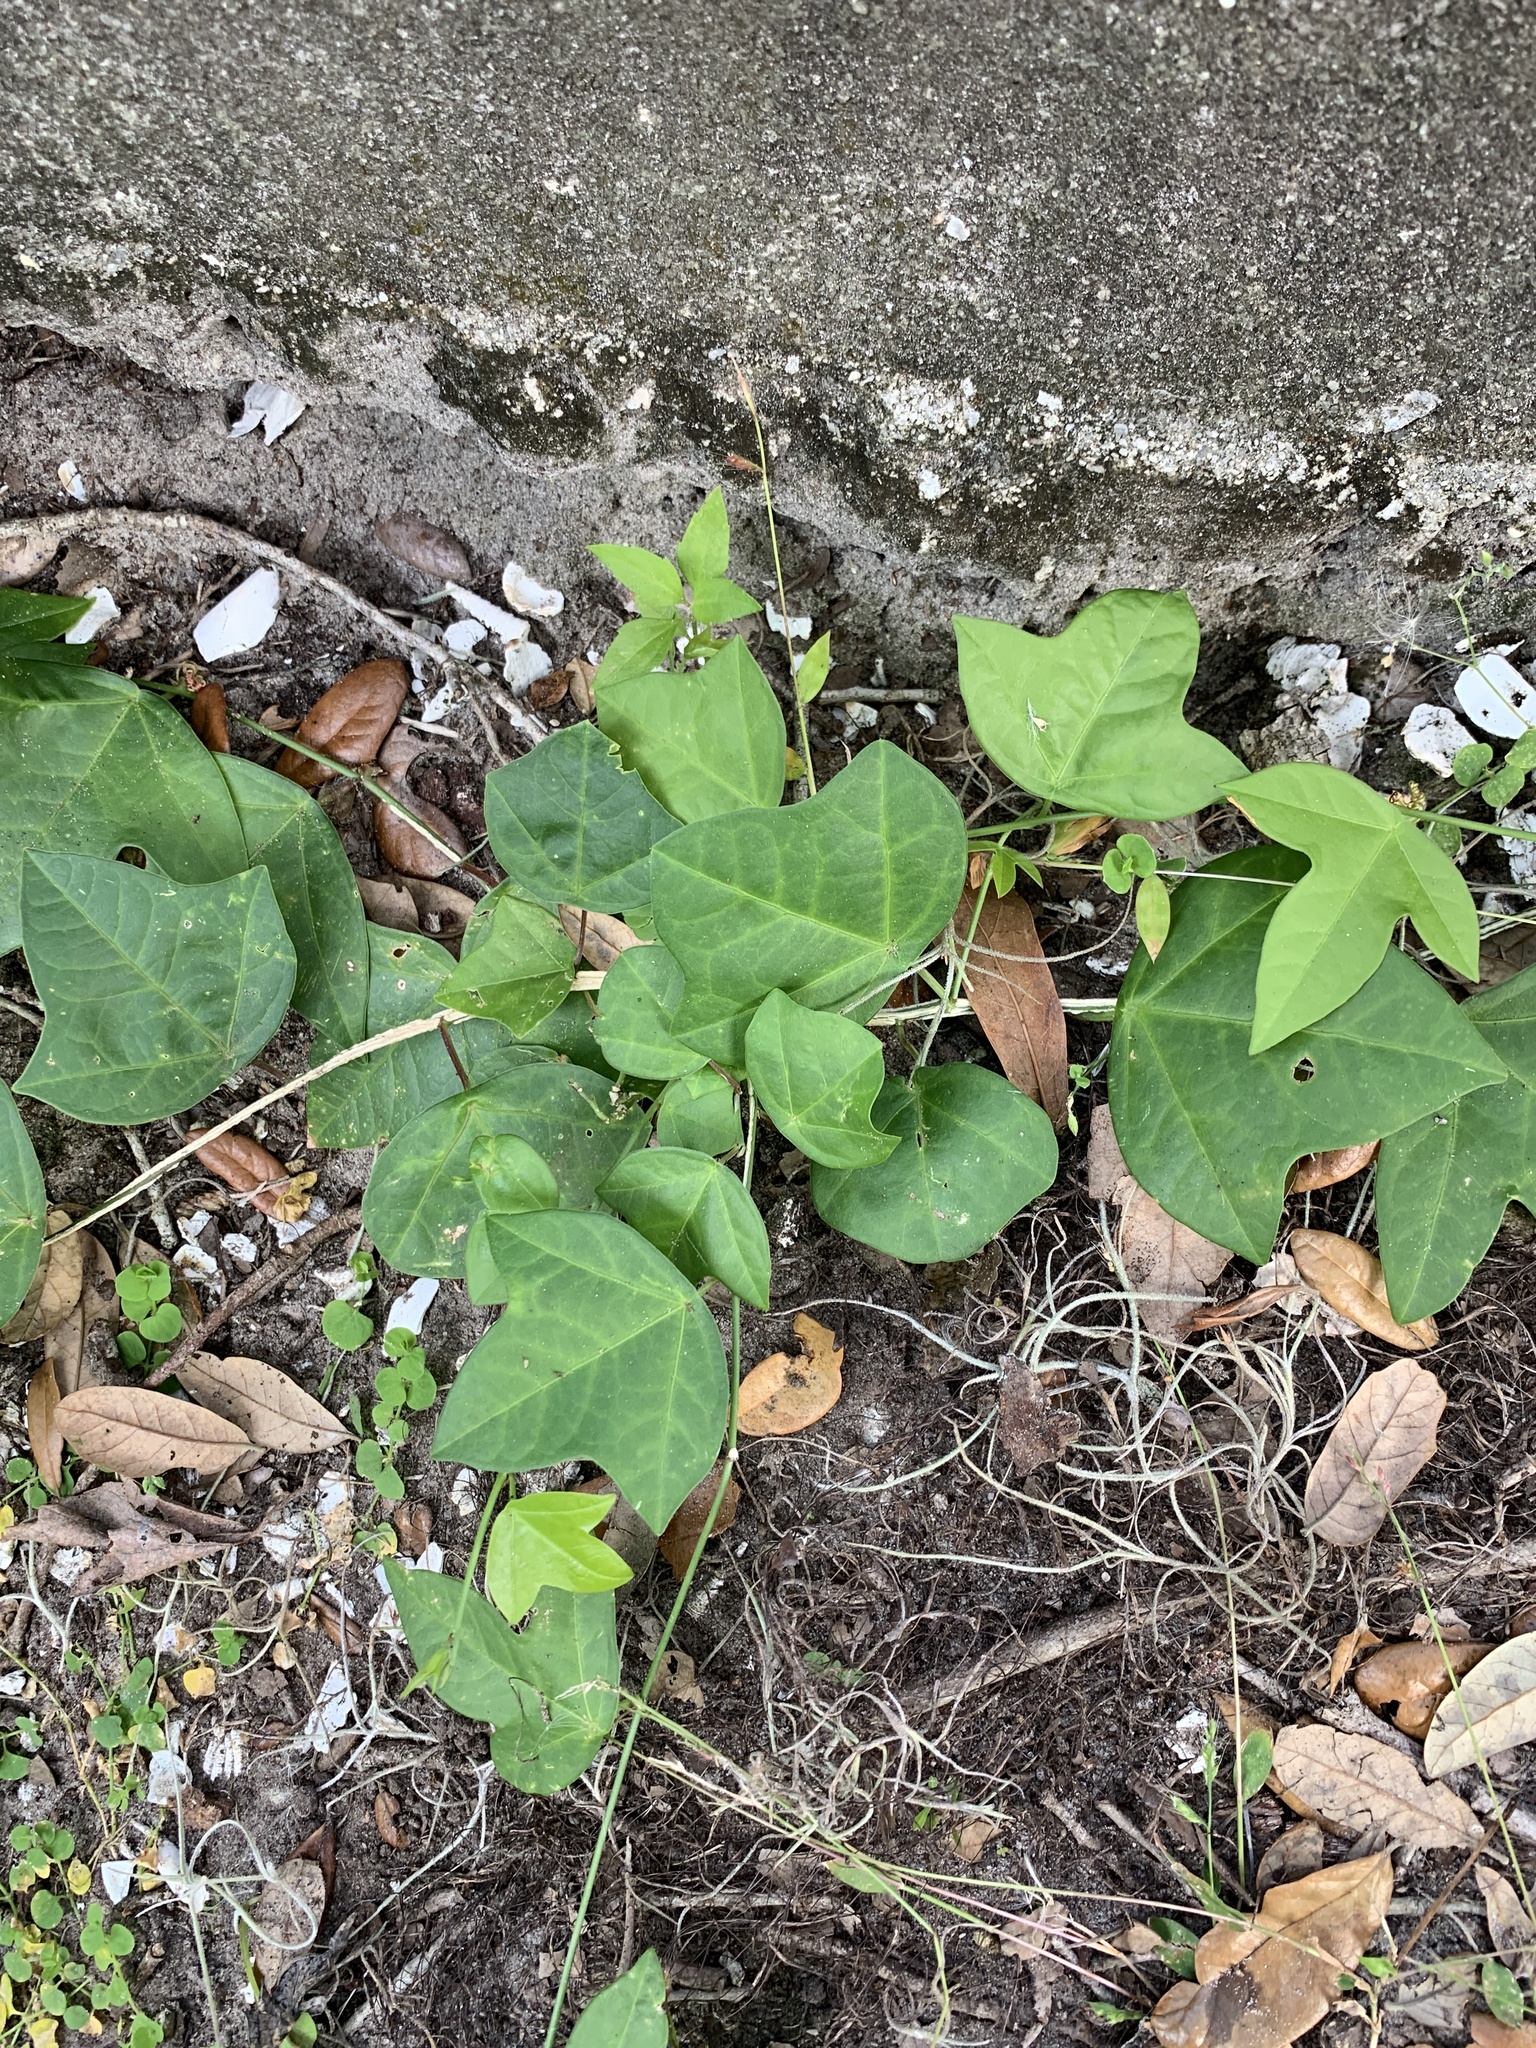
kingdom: Plantae
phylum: Tracheophyta
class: Magnoliopsida
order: Malpighiales
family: Passifloraceae
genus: Passiflora
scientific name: Passiflora pallida
